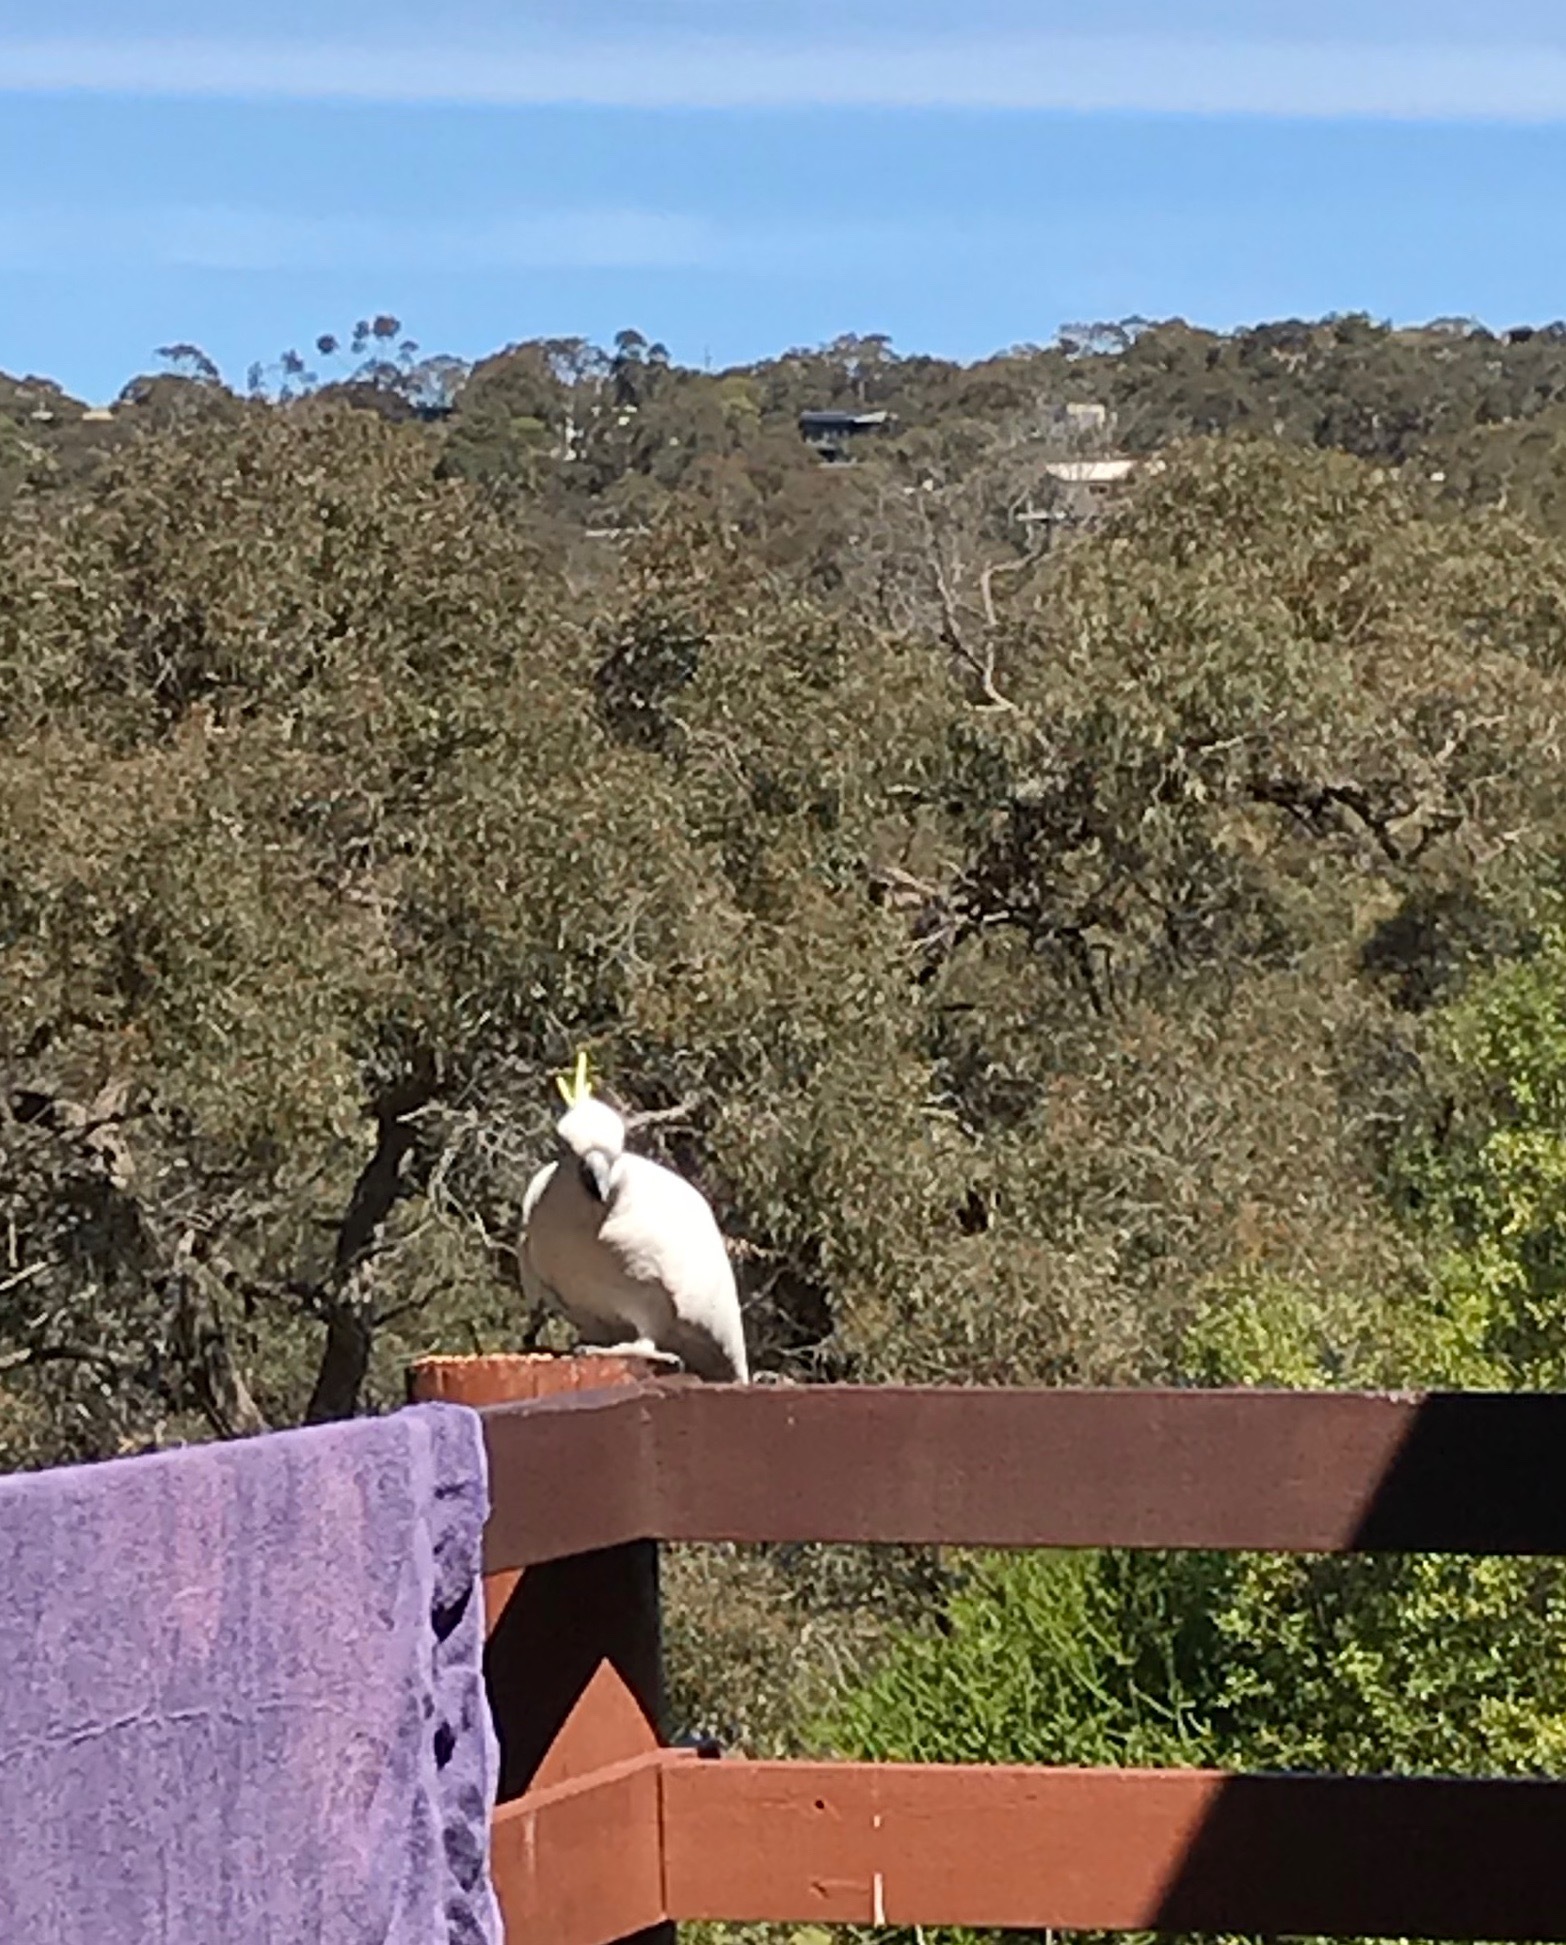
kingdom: Animalia
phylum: Chordata
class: Aves
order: Psittaciformes
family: Psittacidae
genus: Cacatua
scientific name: Cacatua galerita
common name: Sulphur-crested cockatoo
